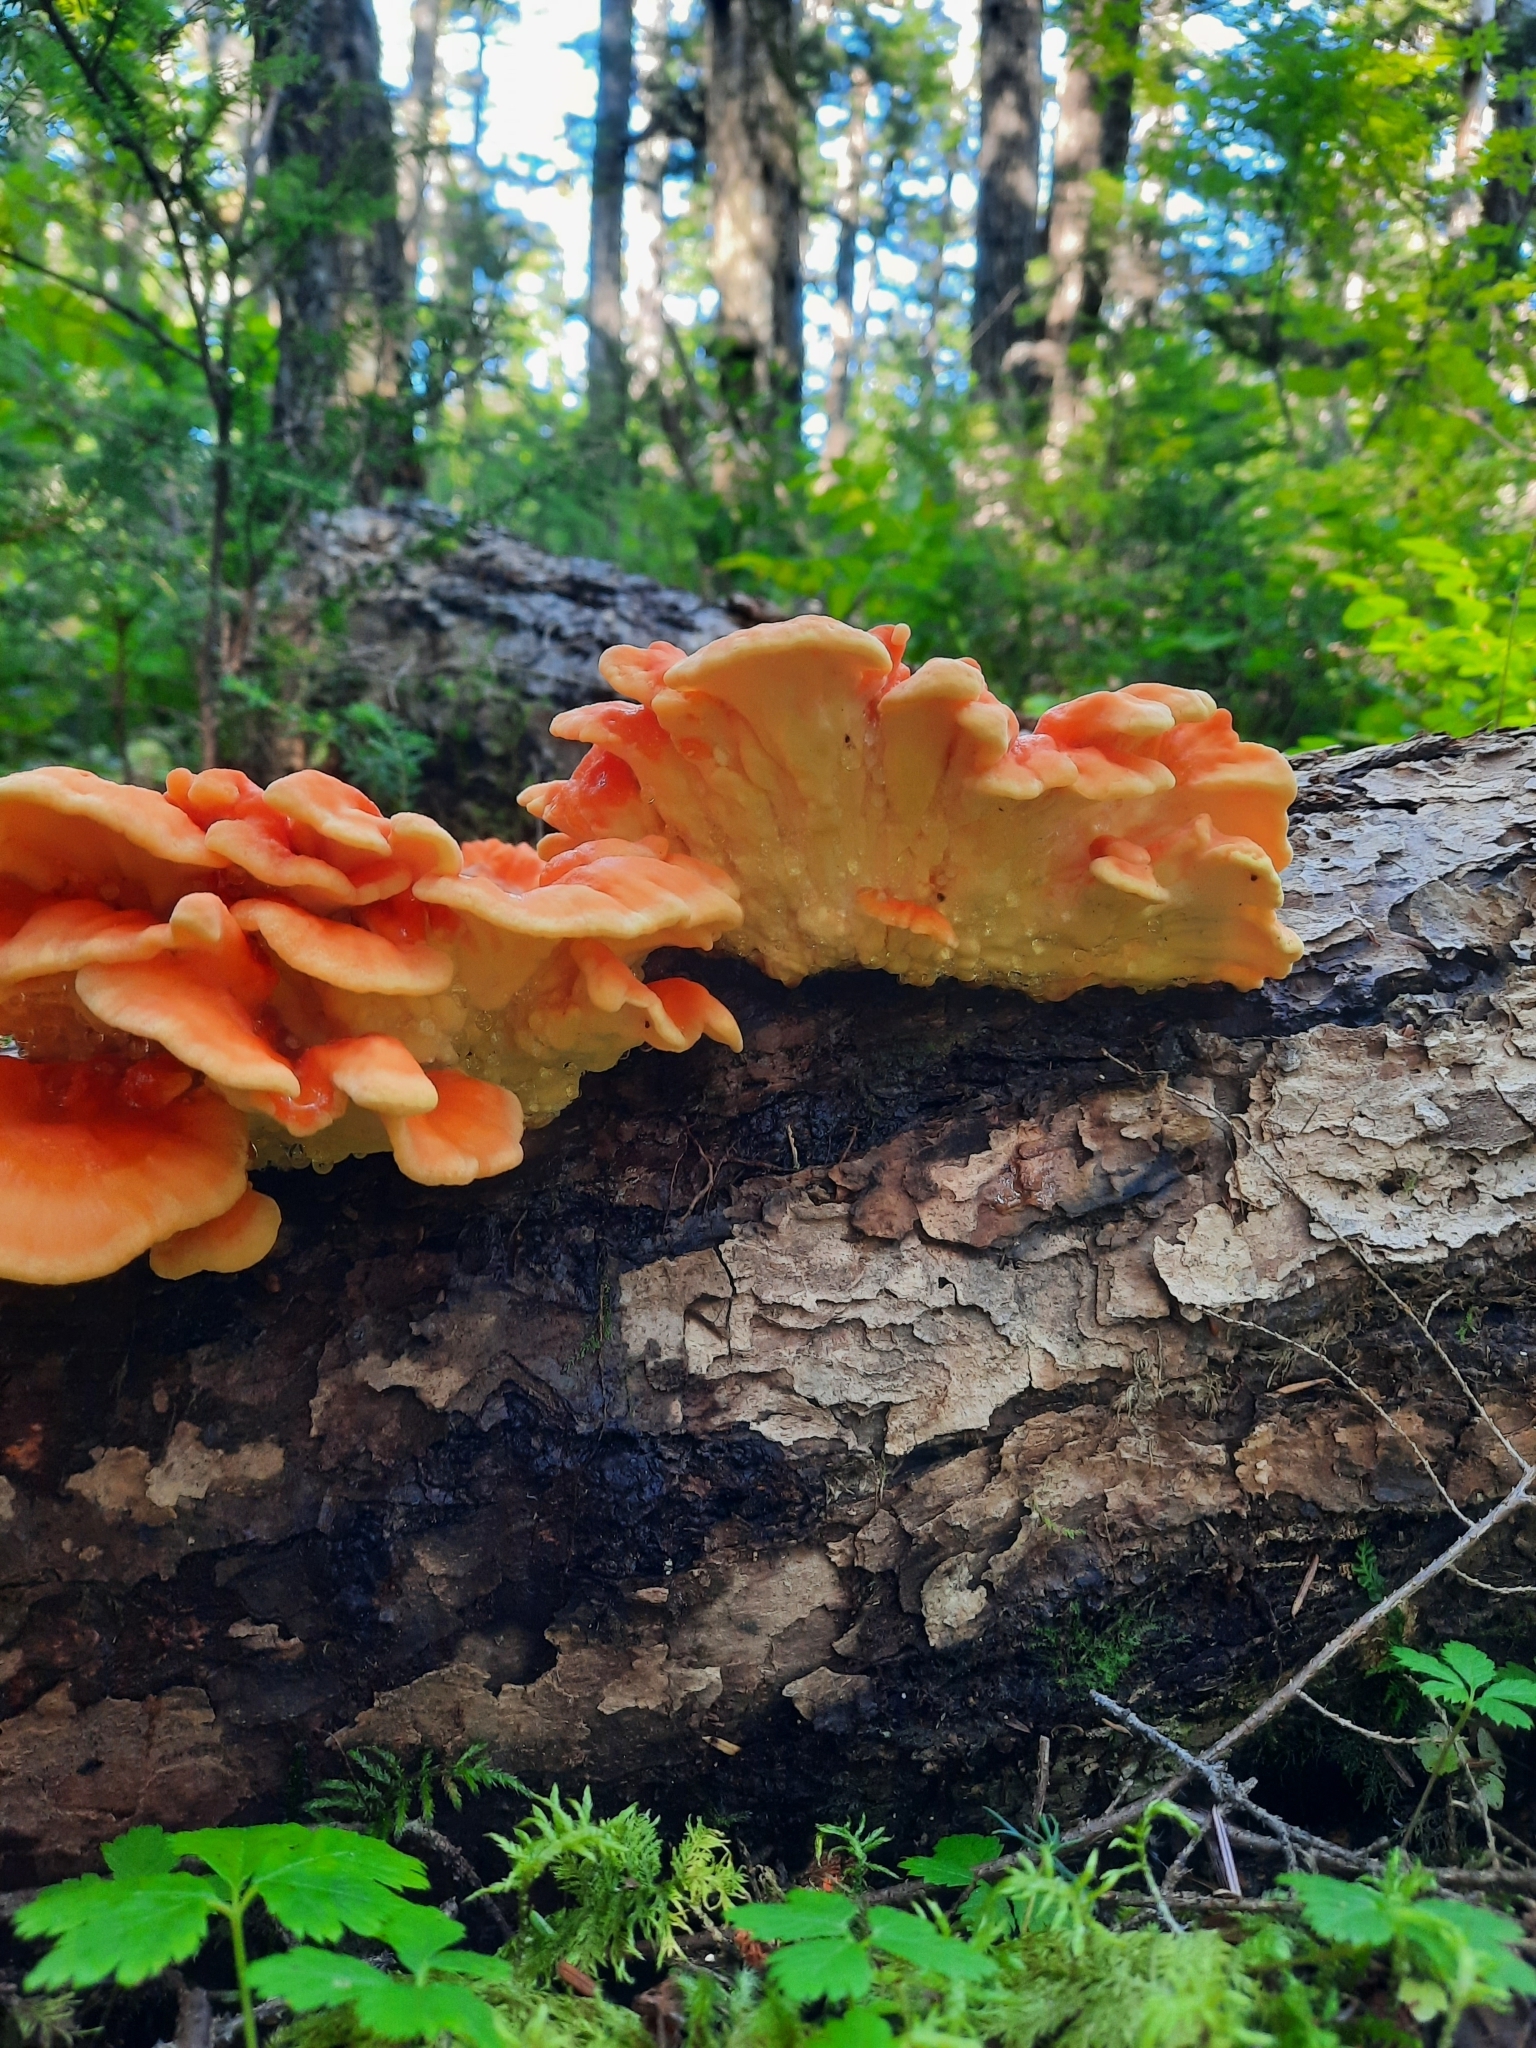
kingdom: Fungi
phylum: Basidiomycota
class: Agaricomycetes
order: Polyporales
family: Laetiporaceae
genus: Laetiporus
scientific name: Laetiporus conifericola
